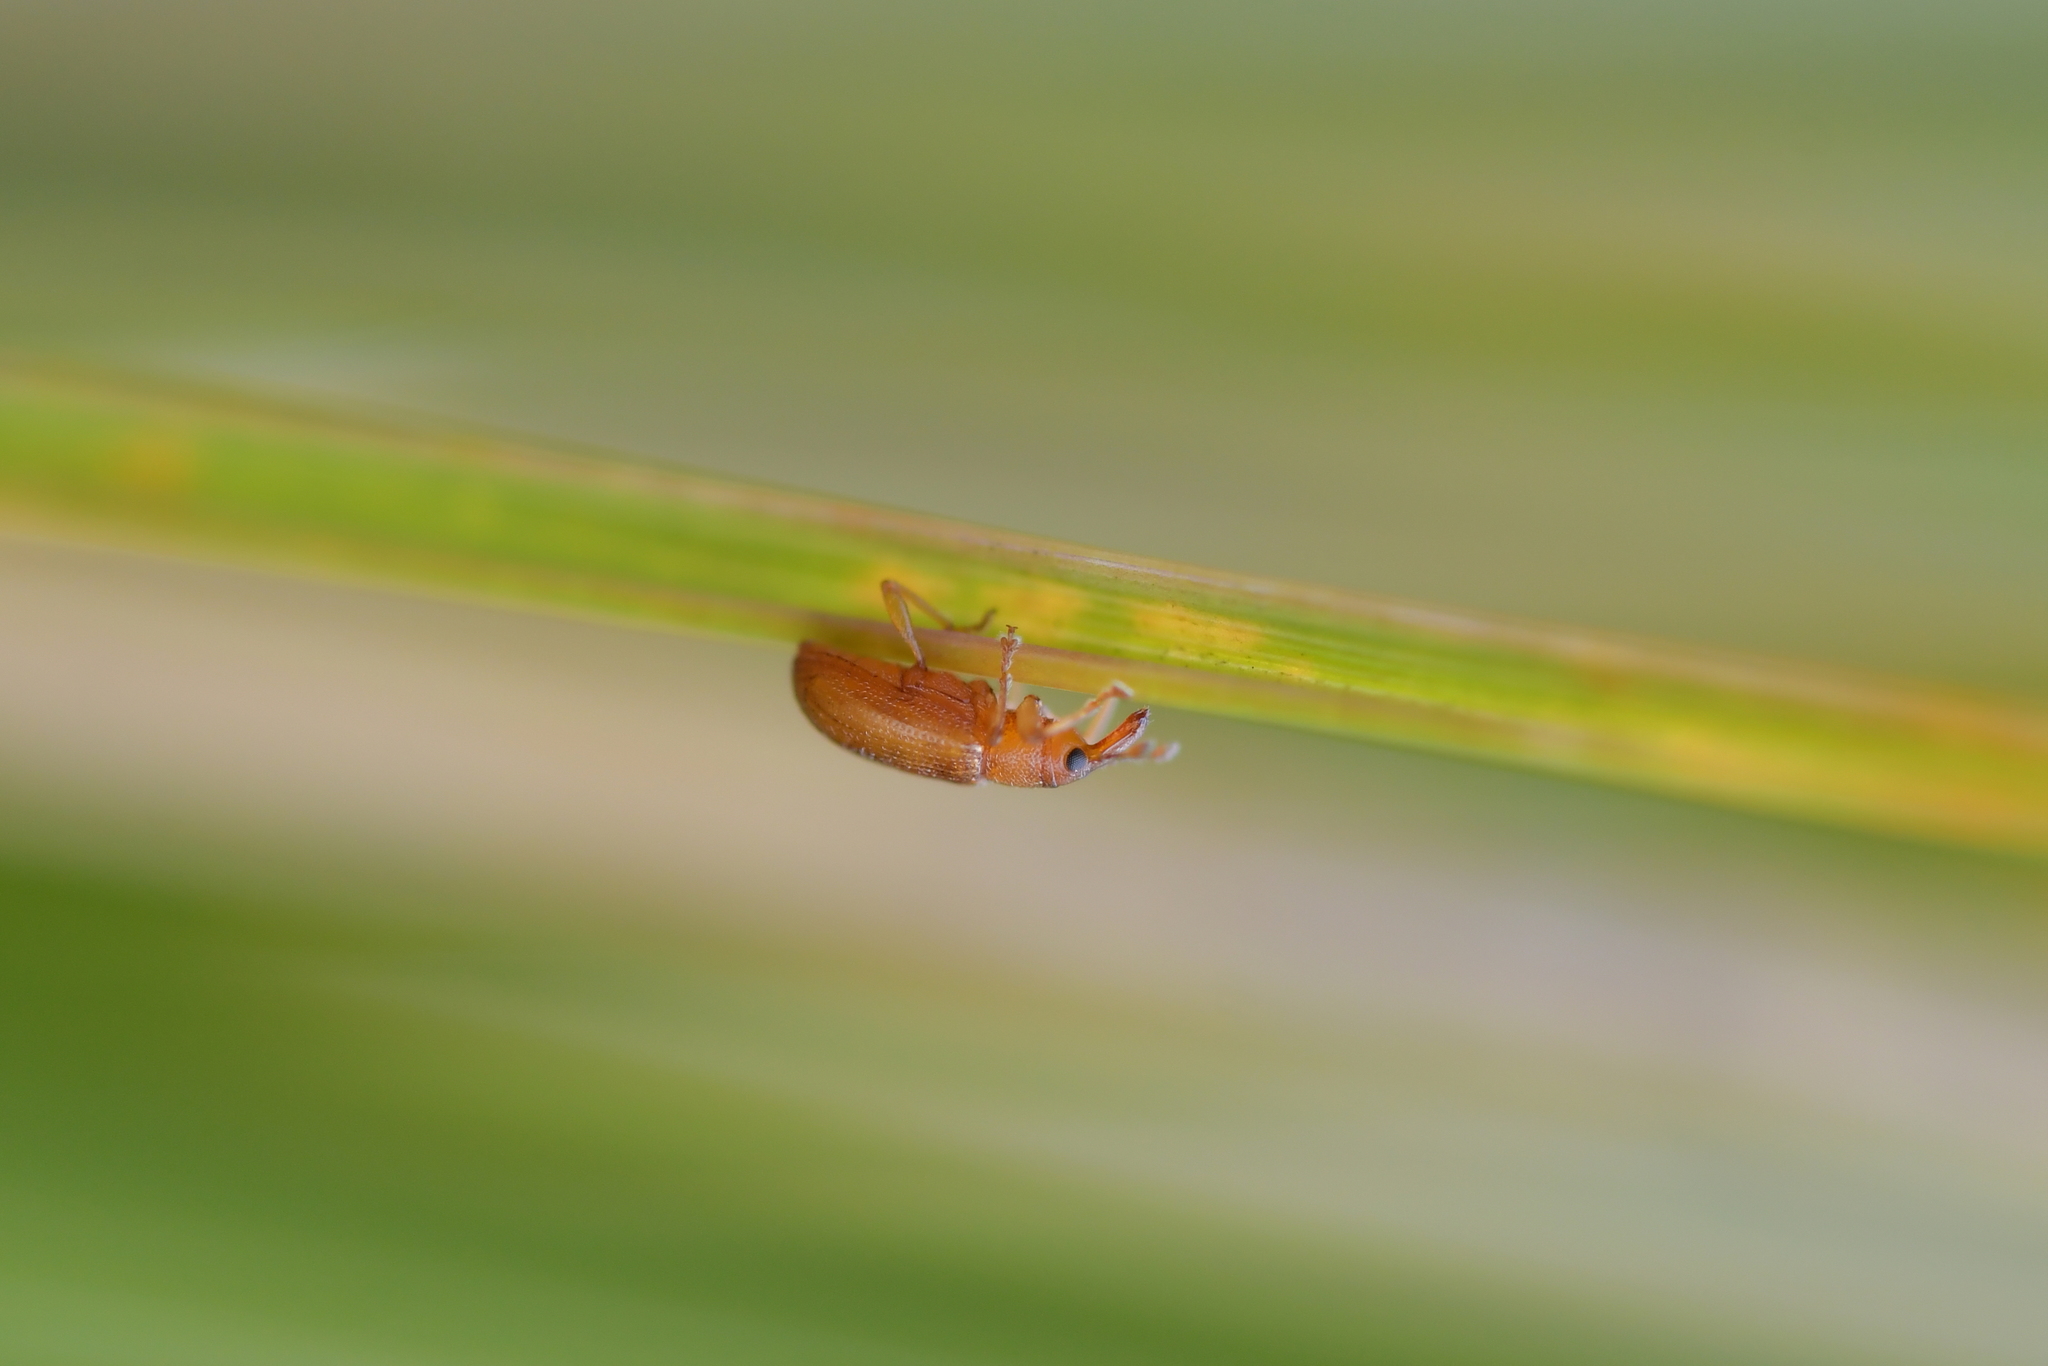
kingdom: Animalia
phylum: Arthropoda
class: Insecta
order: Coleoptera
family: Curculionidae
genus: Neomycta
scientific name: Neomycta pulicaris
